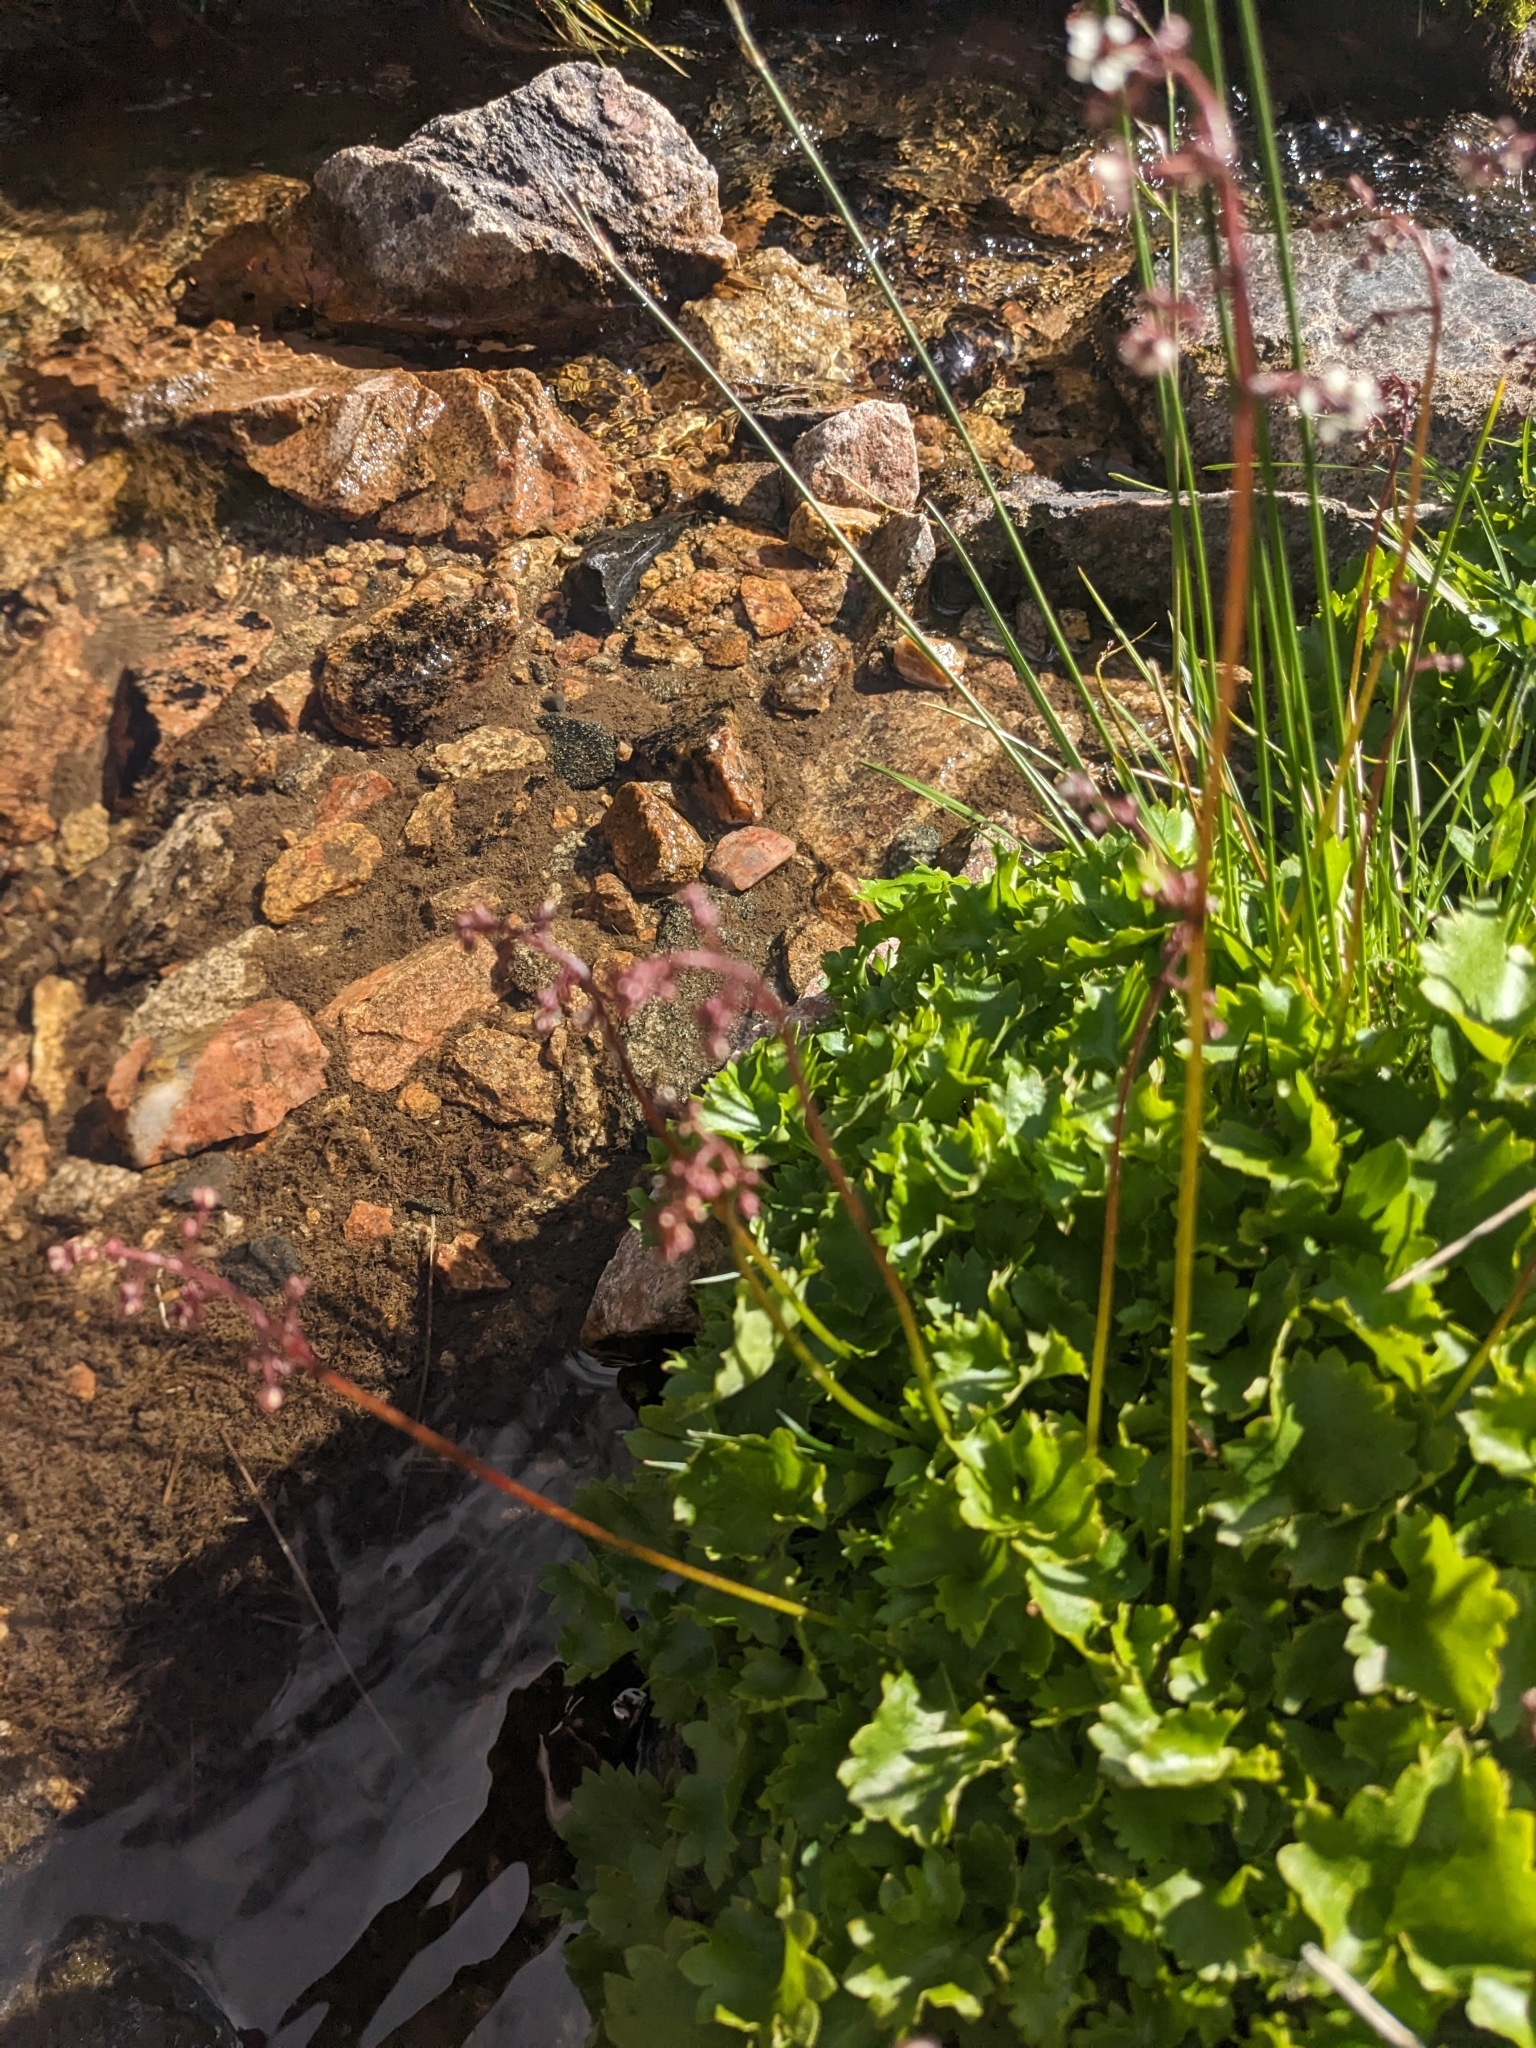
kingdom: Plantae
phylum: Tracheophyta
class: Magnoliopsida
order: Saxifragales
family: Saxifragaceae
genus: Micranthes
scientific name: Micranthes odontoloma
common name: Brook saxifrage
